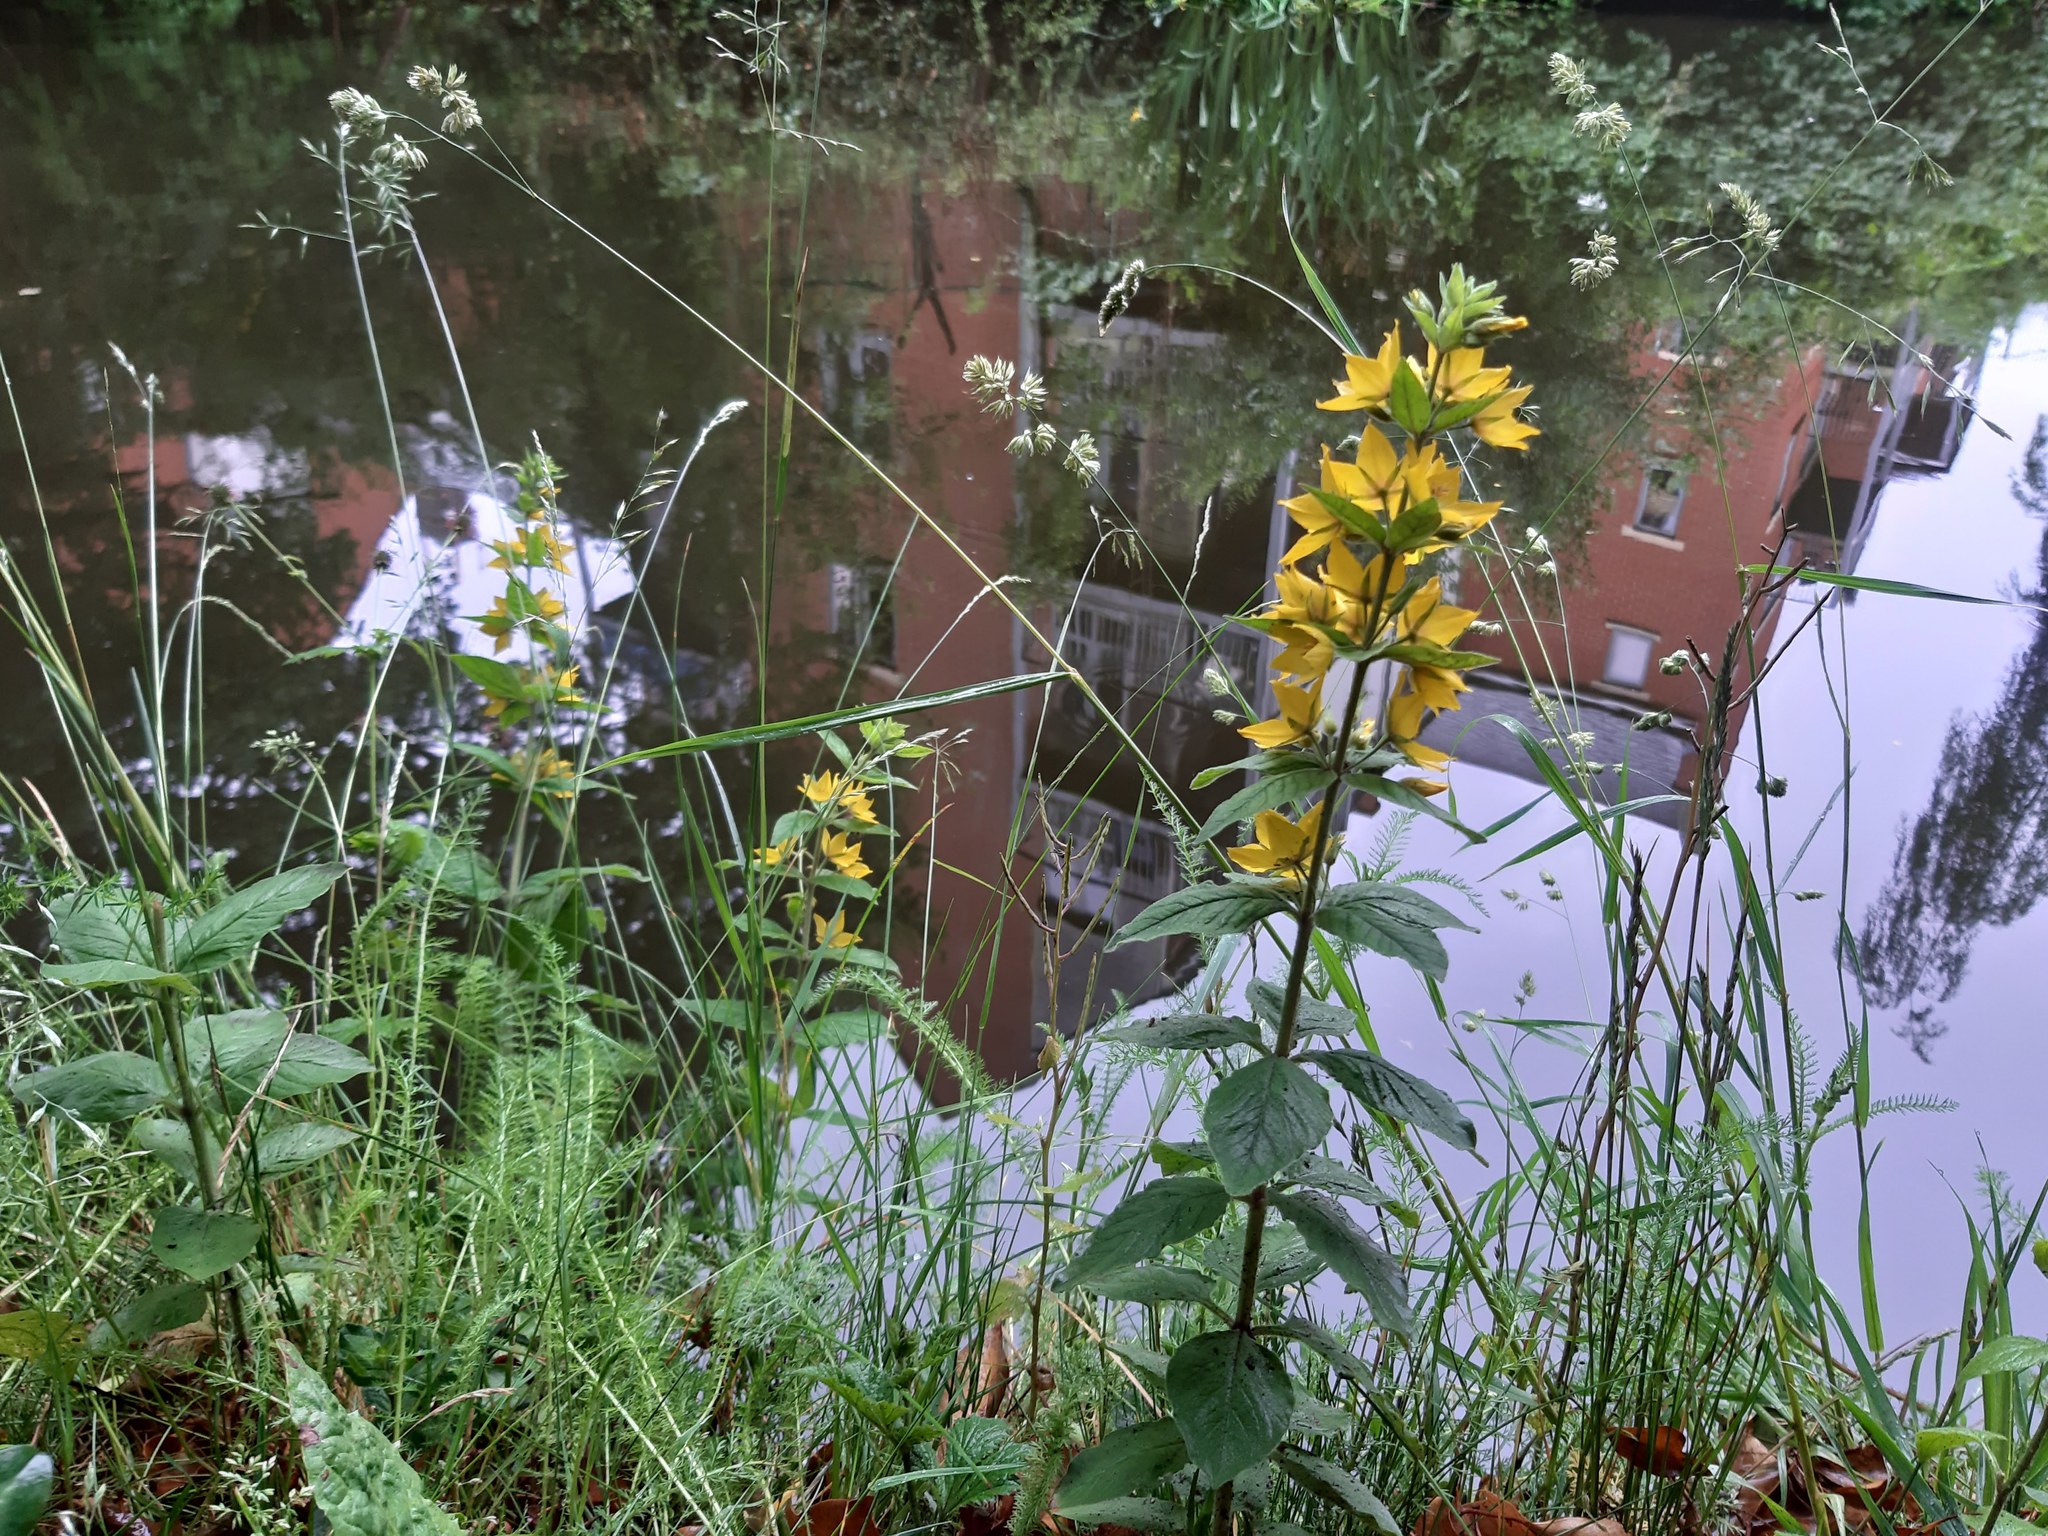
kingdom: Plantae
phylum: Tracheophyta
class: Magnoliopsida
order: Ericales
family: Primulaceae
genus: Lysimachia
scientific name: Lysimachia punctata
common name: Dotted loosestrife
